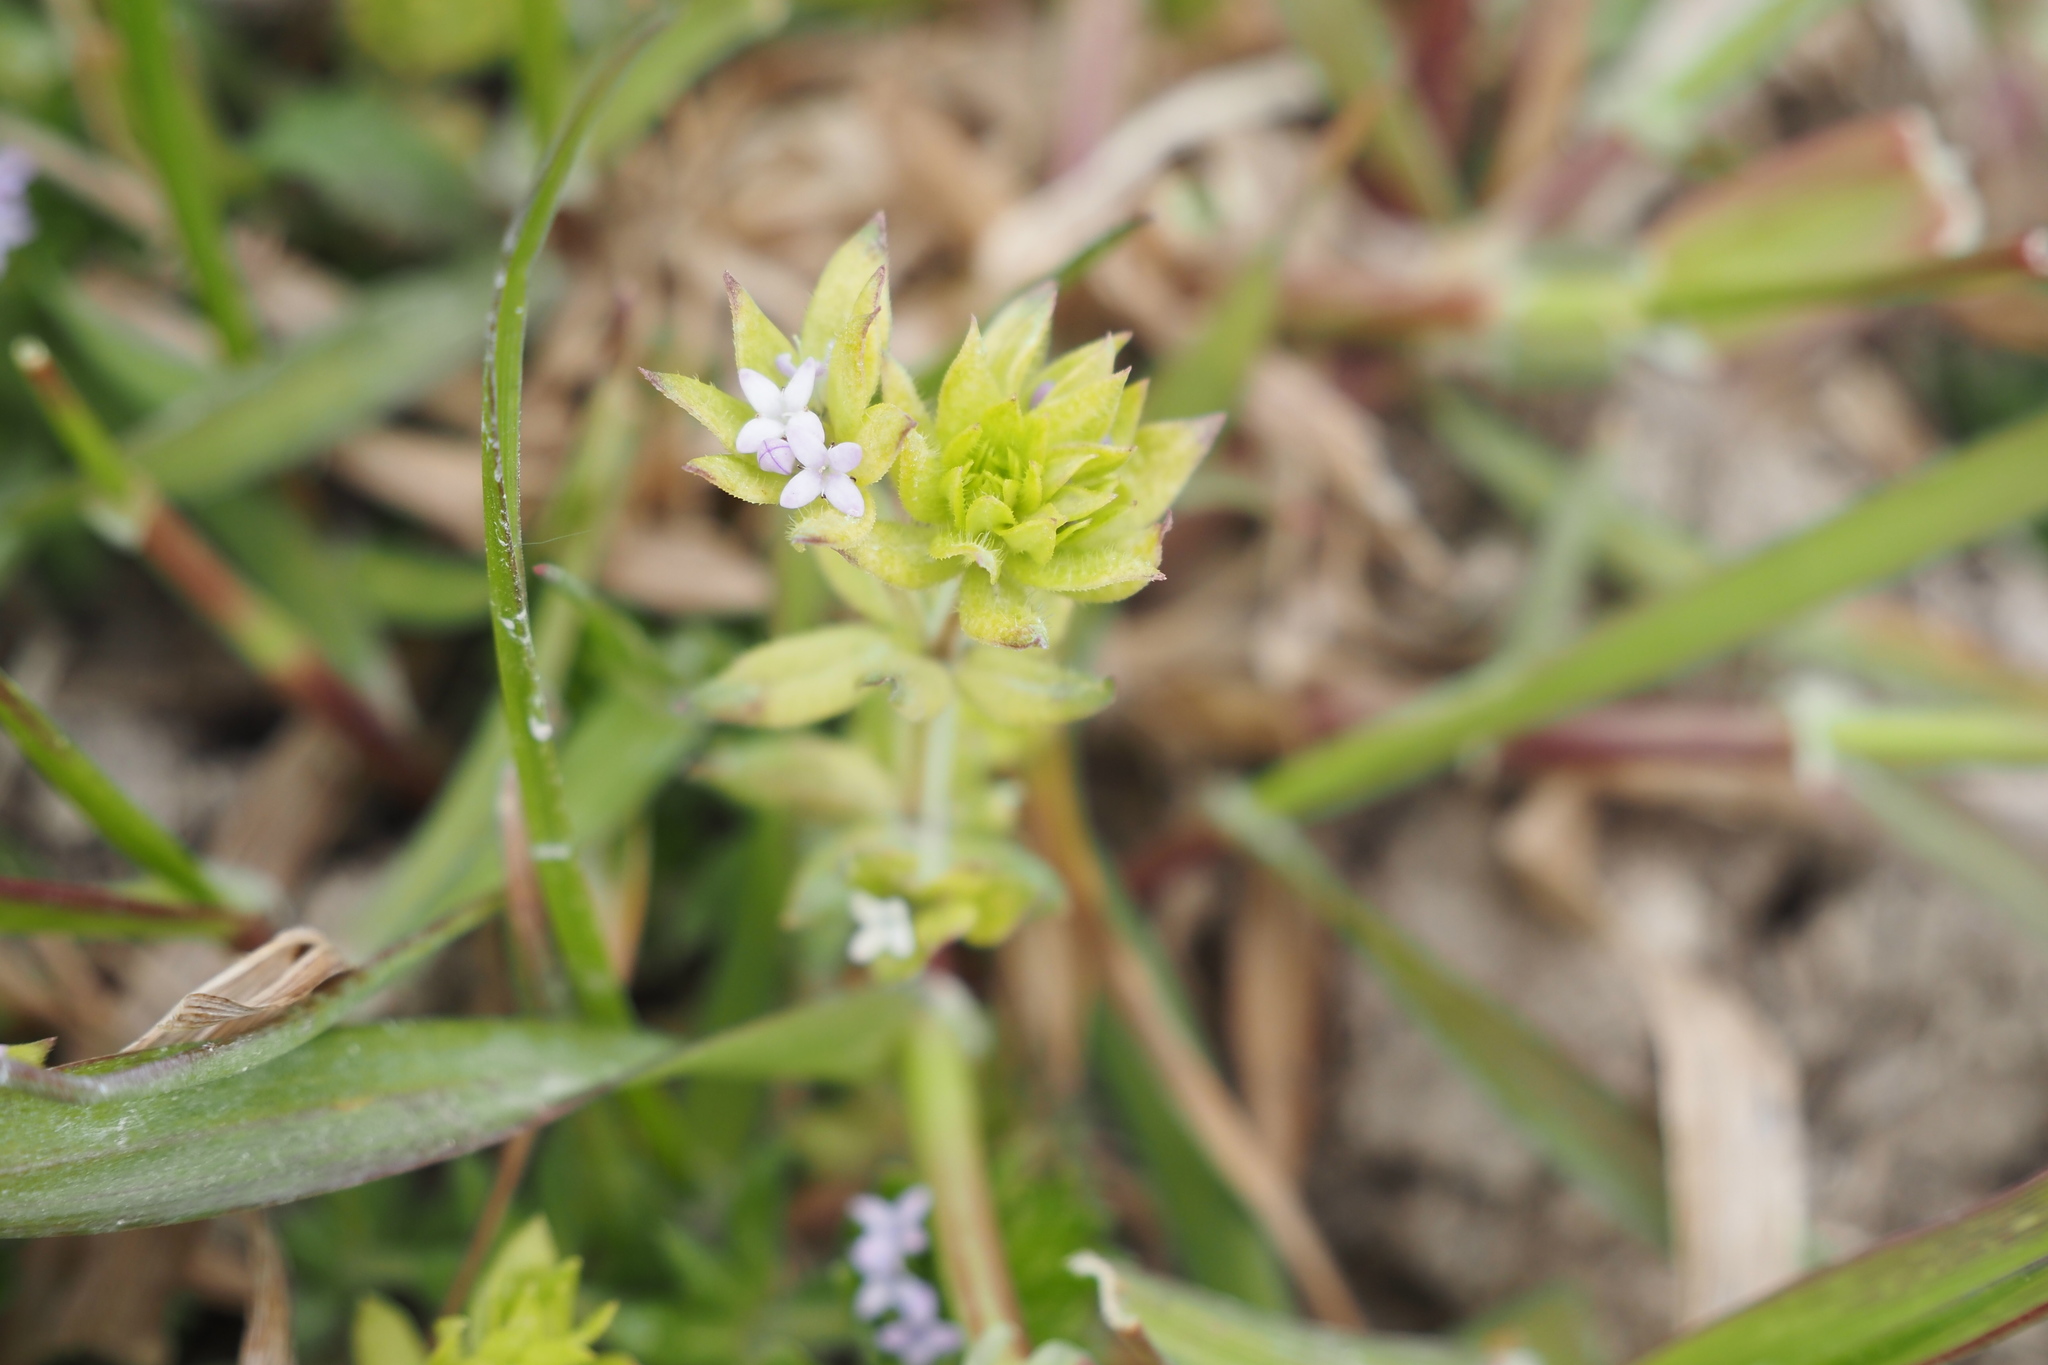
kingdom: Plantae
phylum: Tracheophyta
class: Magnoliopsida
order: Gentianales
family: Rubiaceae
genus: Sherardia
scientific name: Sherardia arvensis
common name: Field madder
